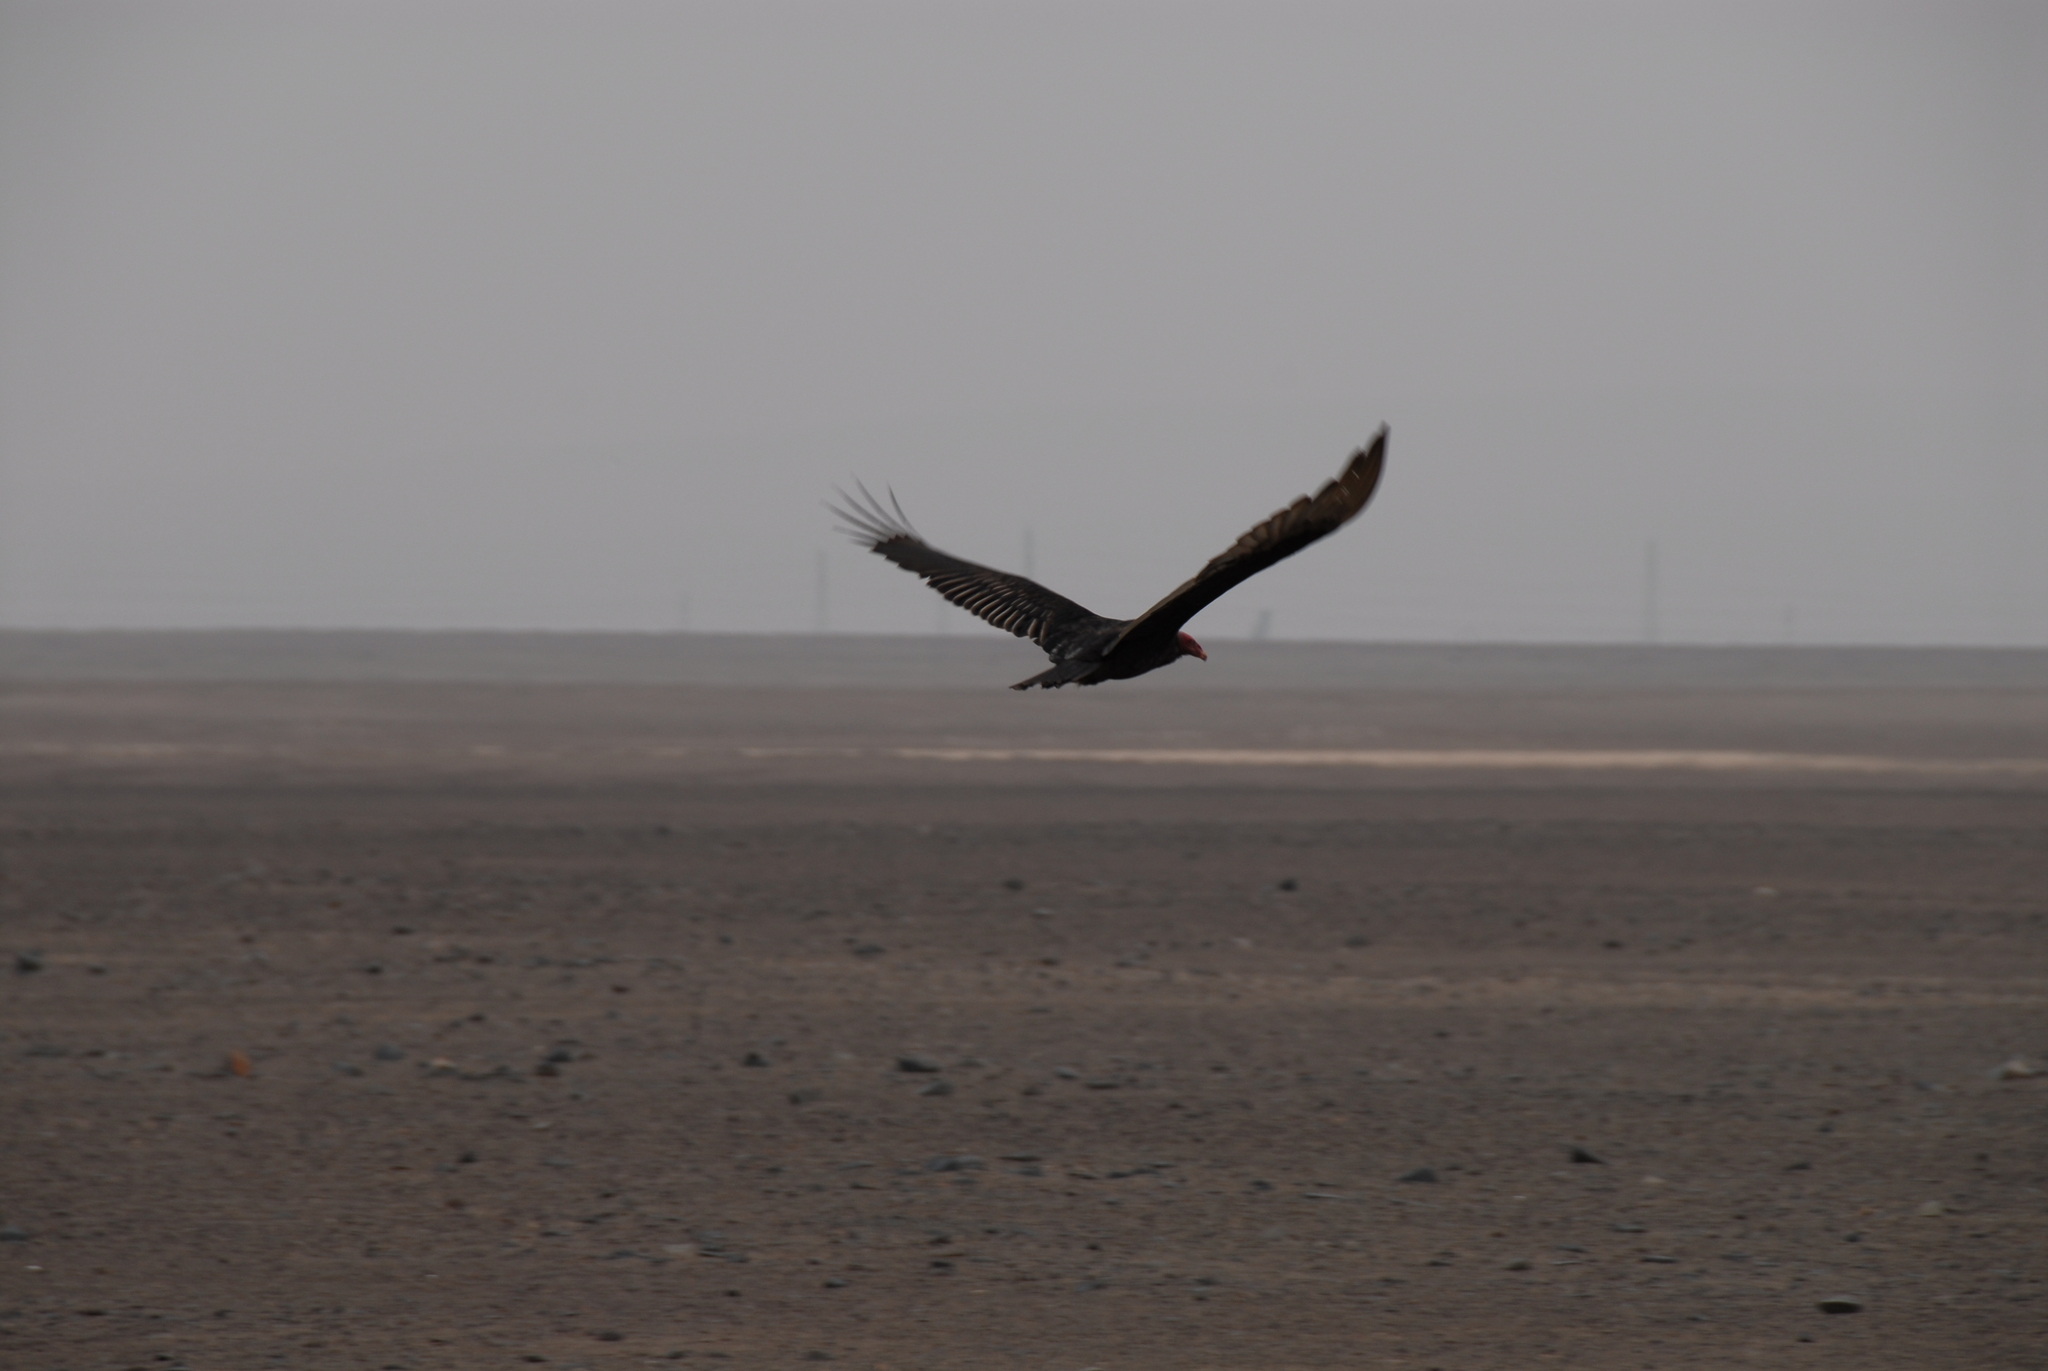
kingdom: Animalia
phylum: Chordata
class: Aves
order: Accipitriformes
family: Cathartidae
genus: Cathartes
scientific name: Cathartes aura
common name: Turkey vulture
